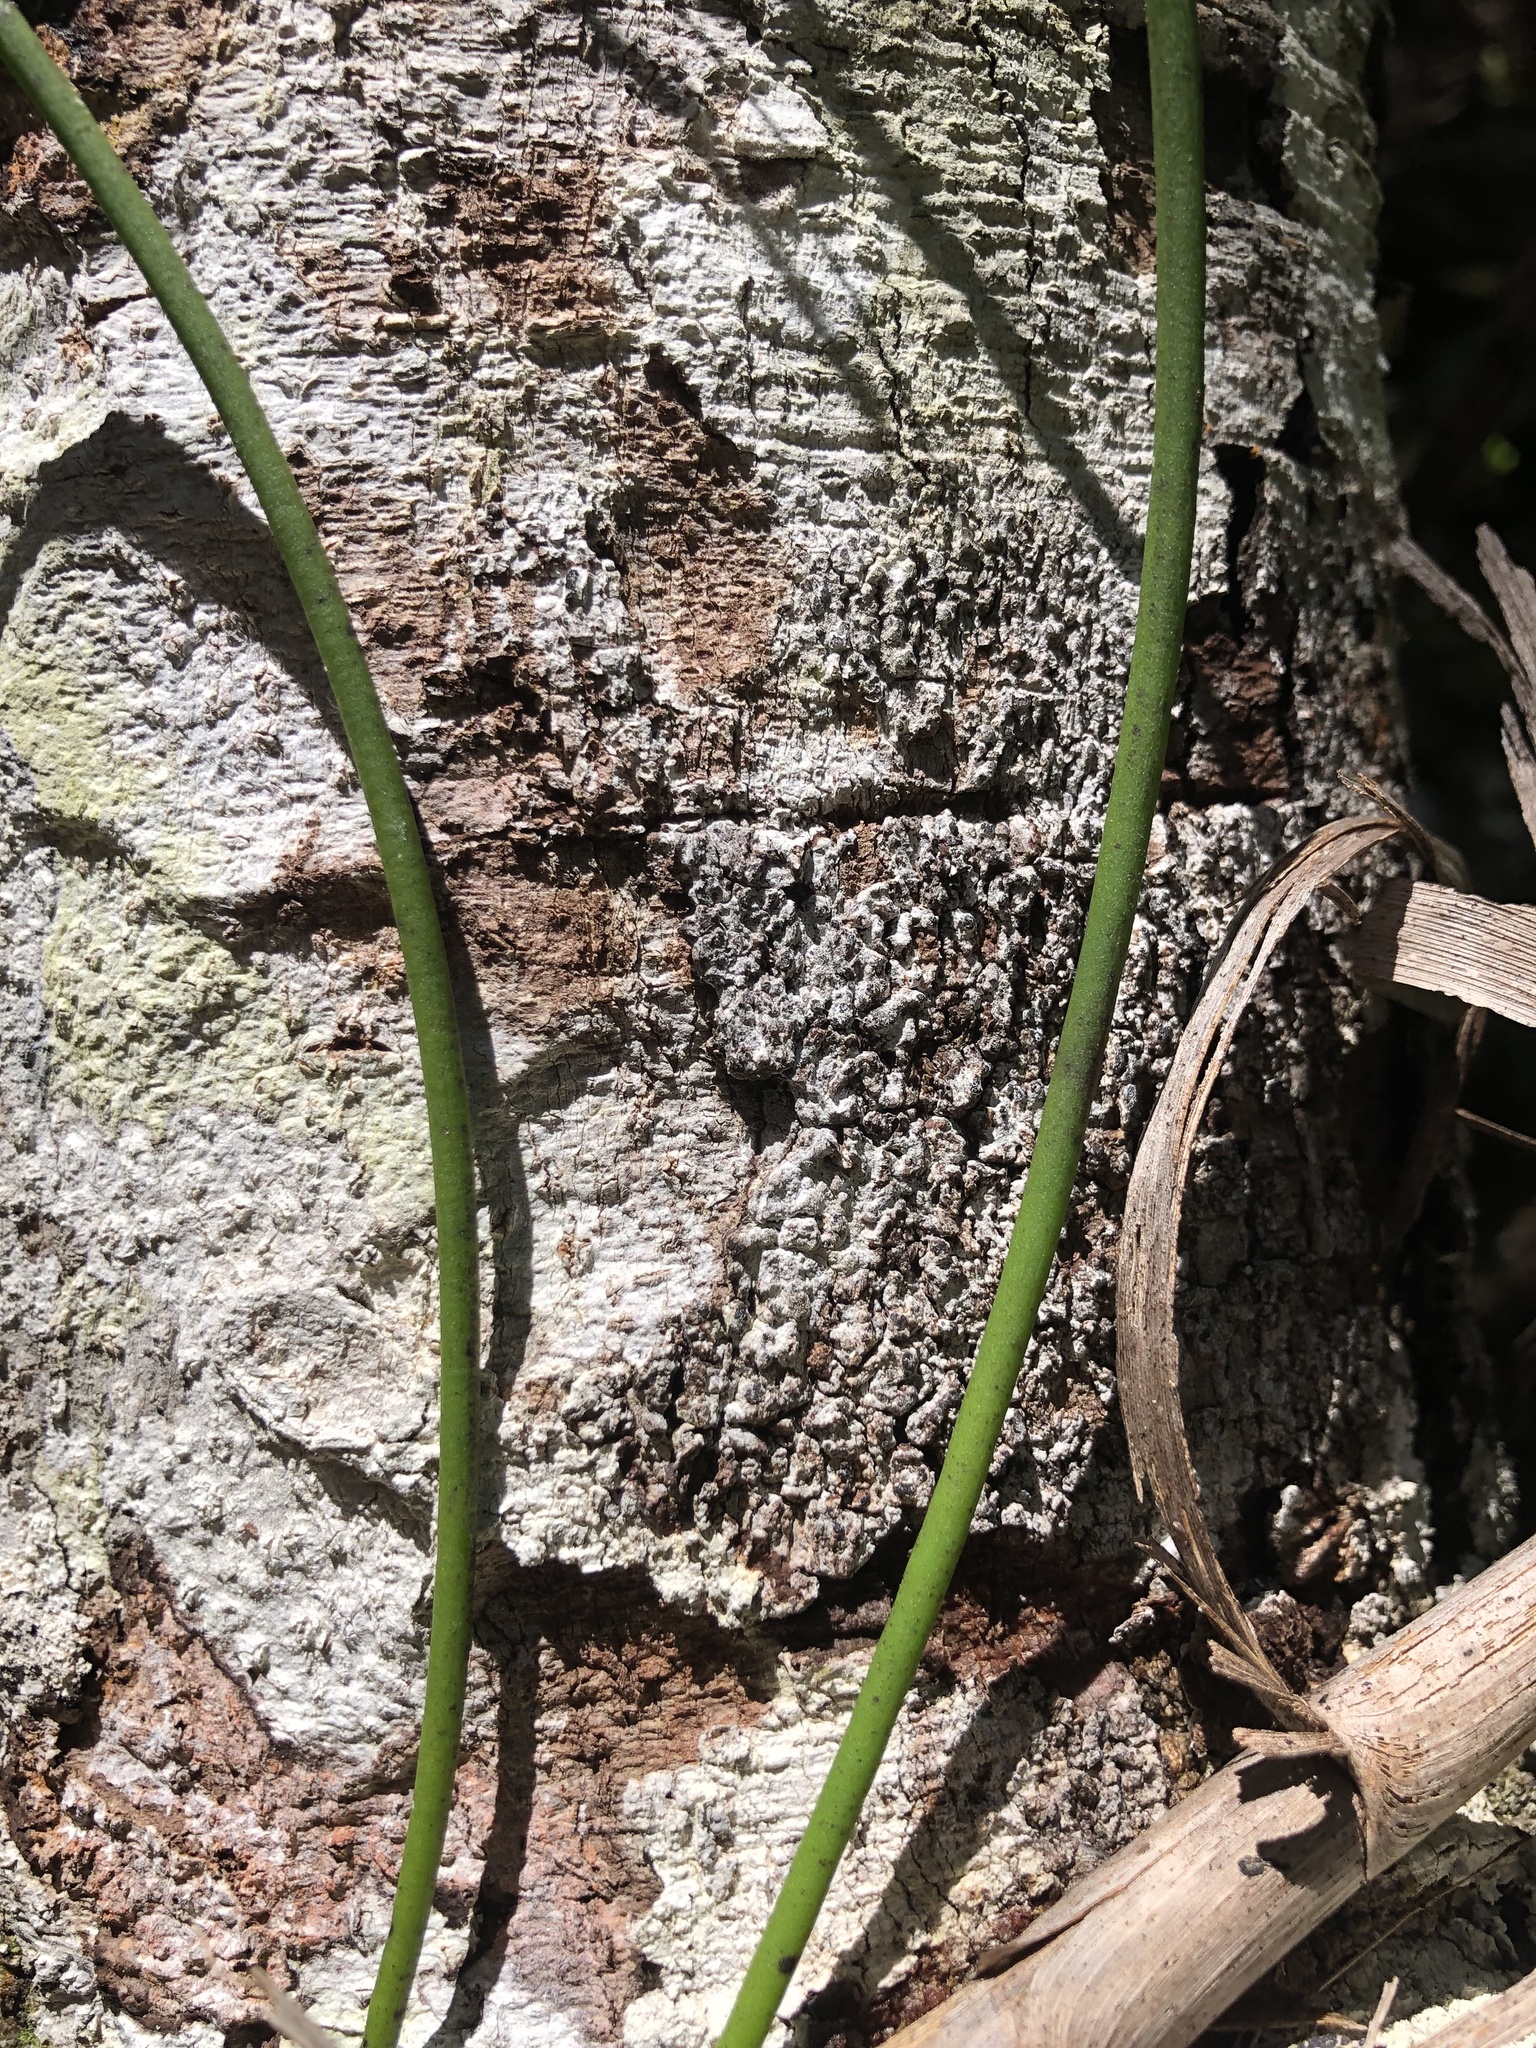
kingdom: Plantae
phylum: Tracheophyta
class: Liliopsida
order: Asparagales
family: Orchidaceae
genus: Dendrobium
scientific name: Dendrobium teretifolium
